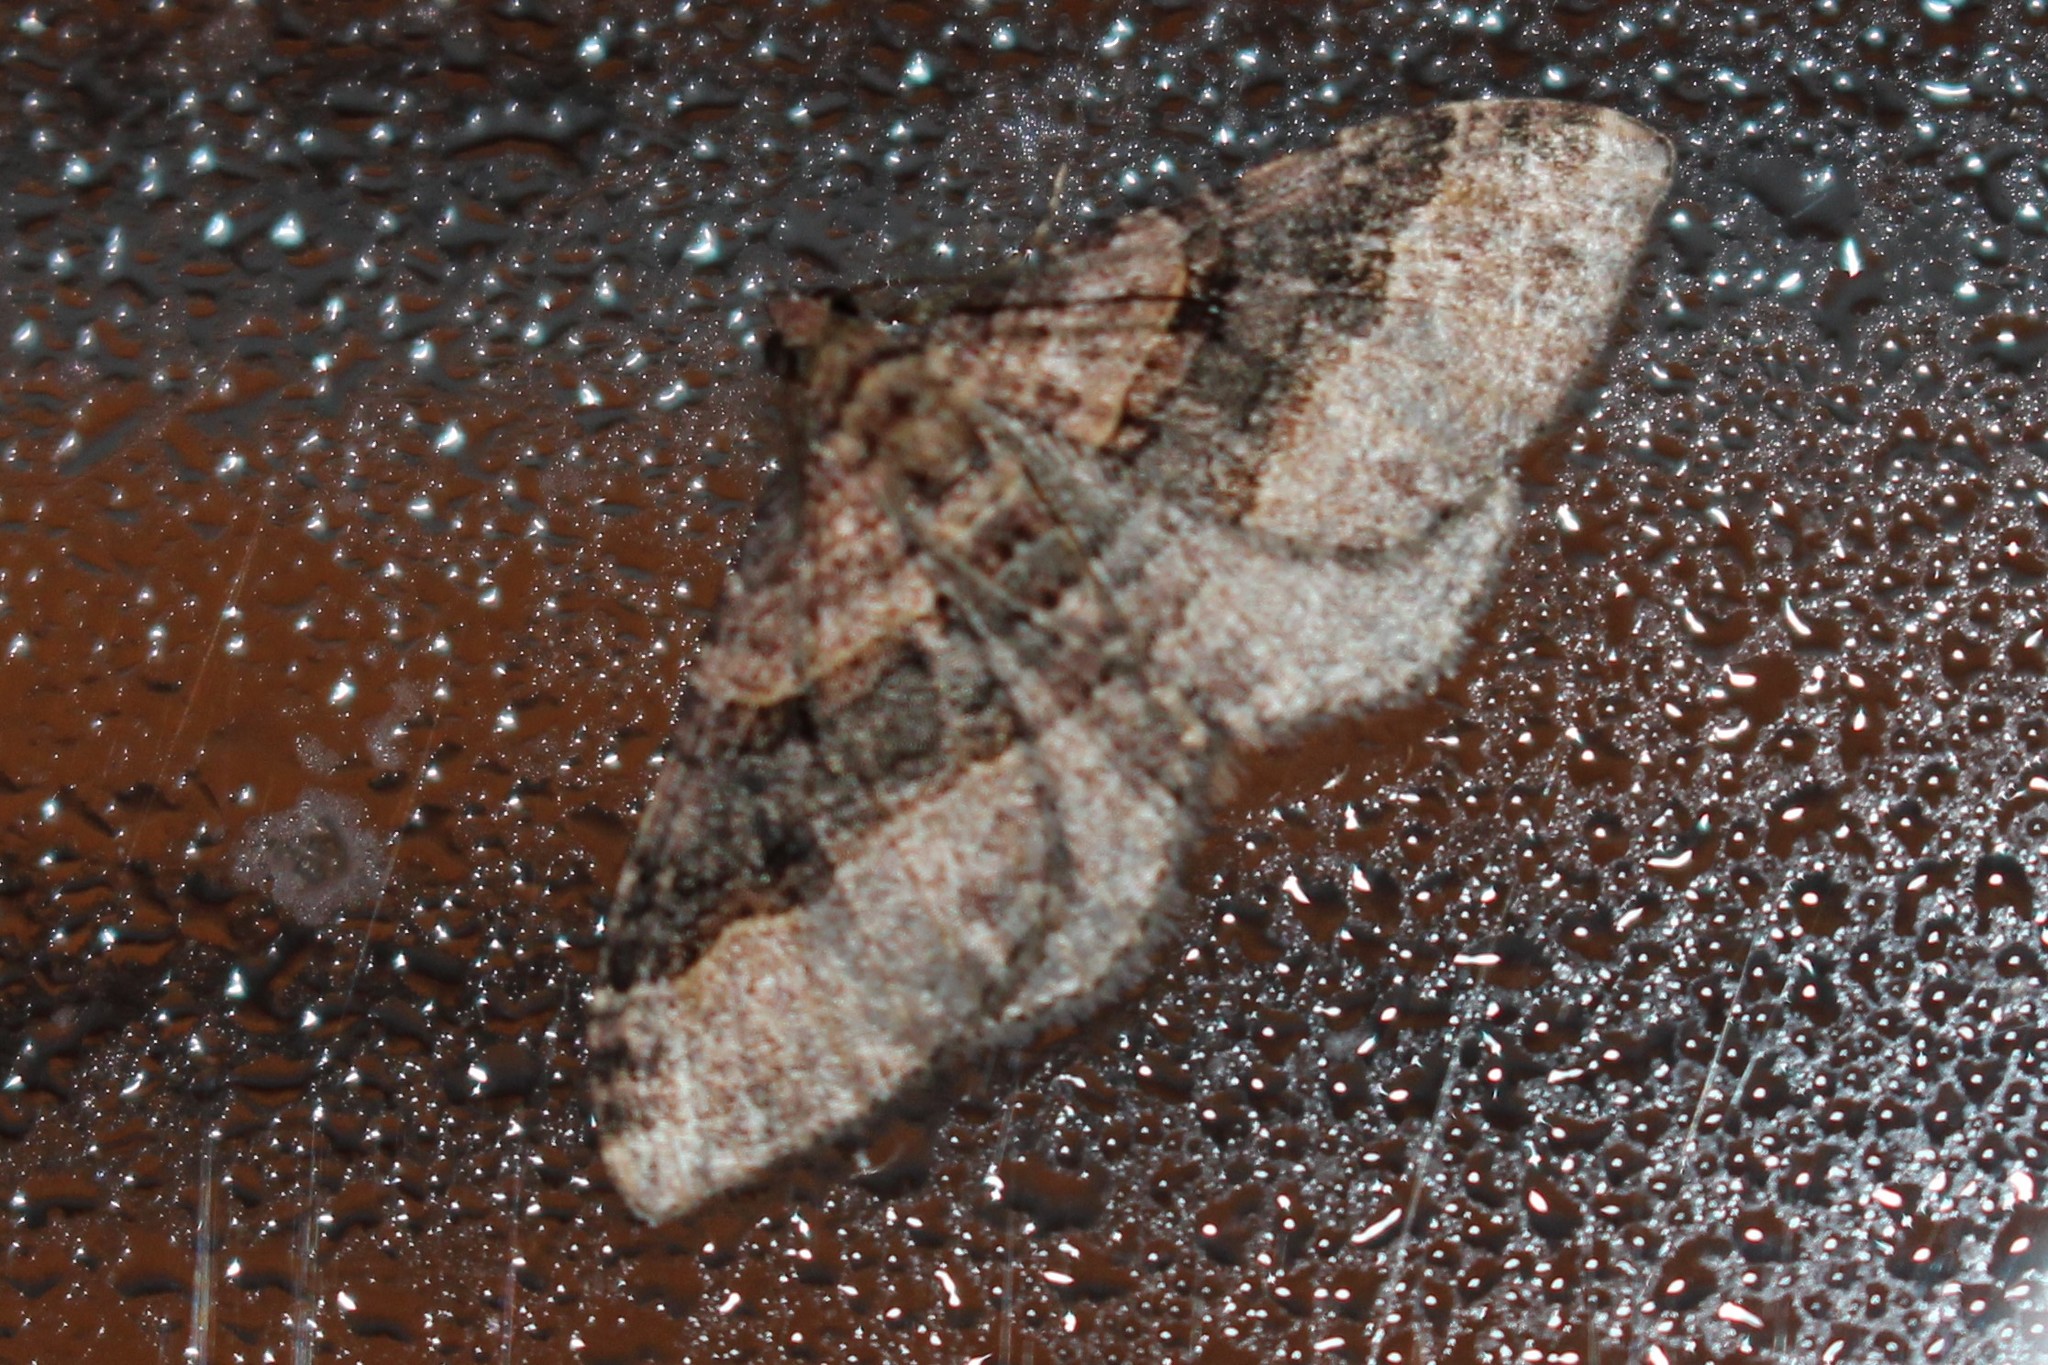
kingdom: Animalia
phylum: Arthropoda
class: Insecta
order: Lepidoptera
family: Geometridae
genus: Epyaxa
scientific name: Epyaxa lucidata
